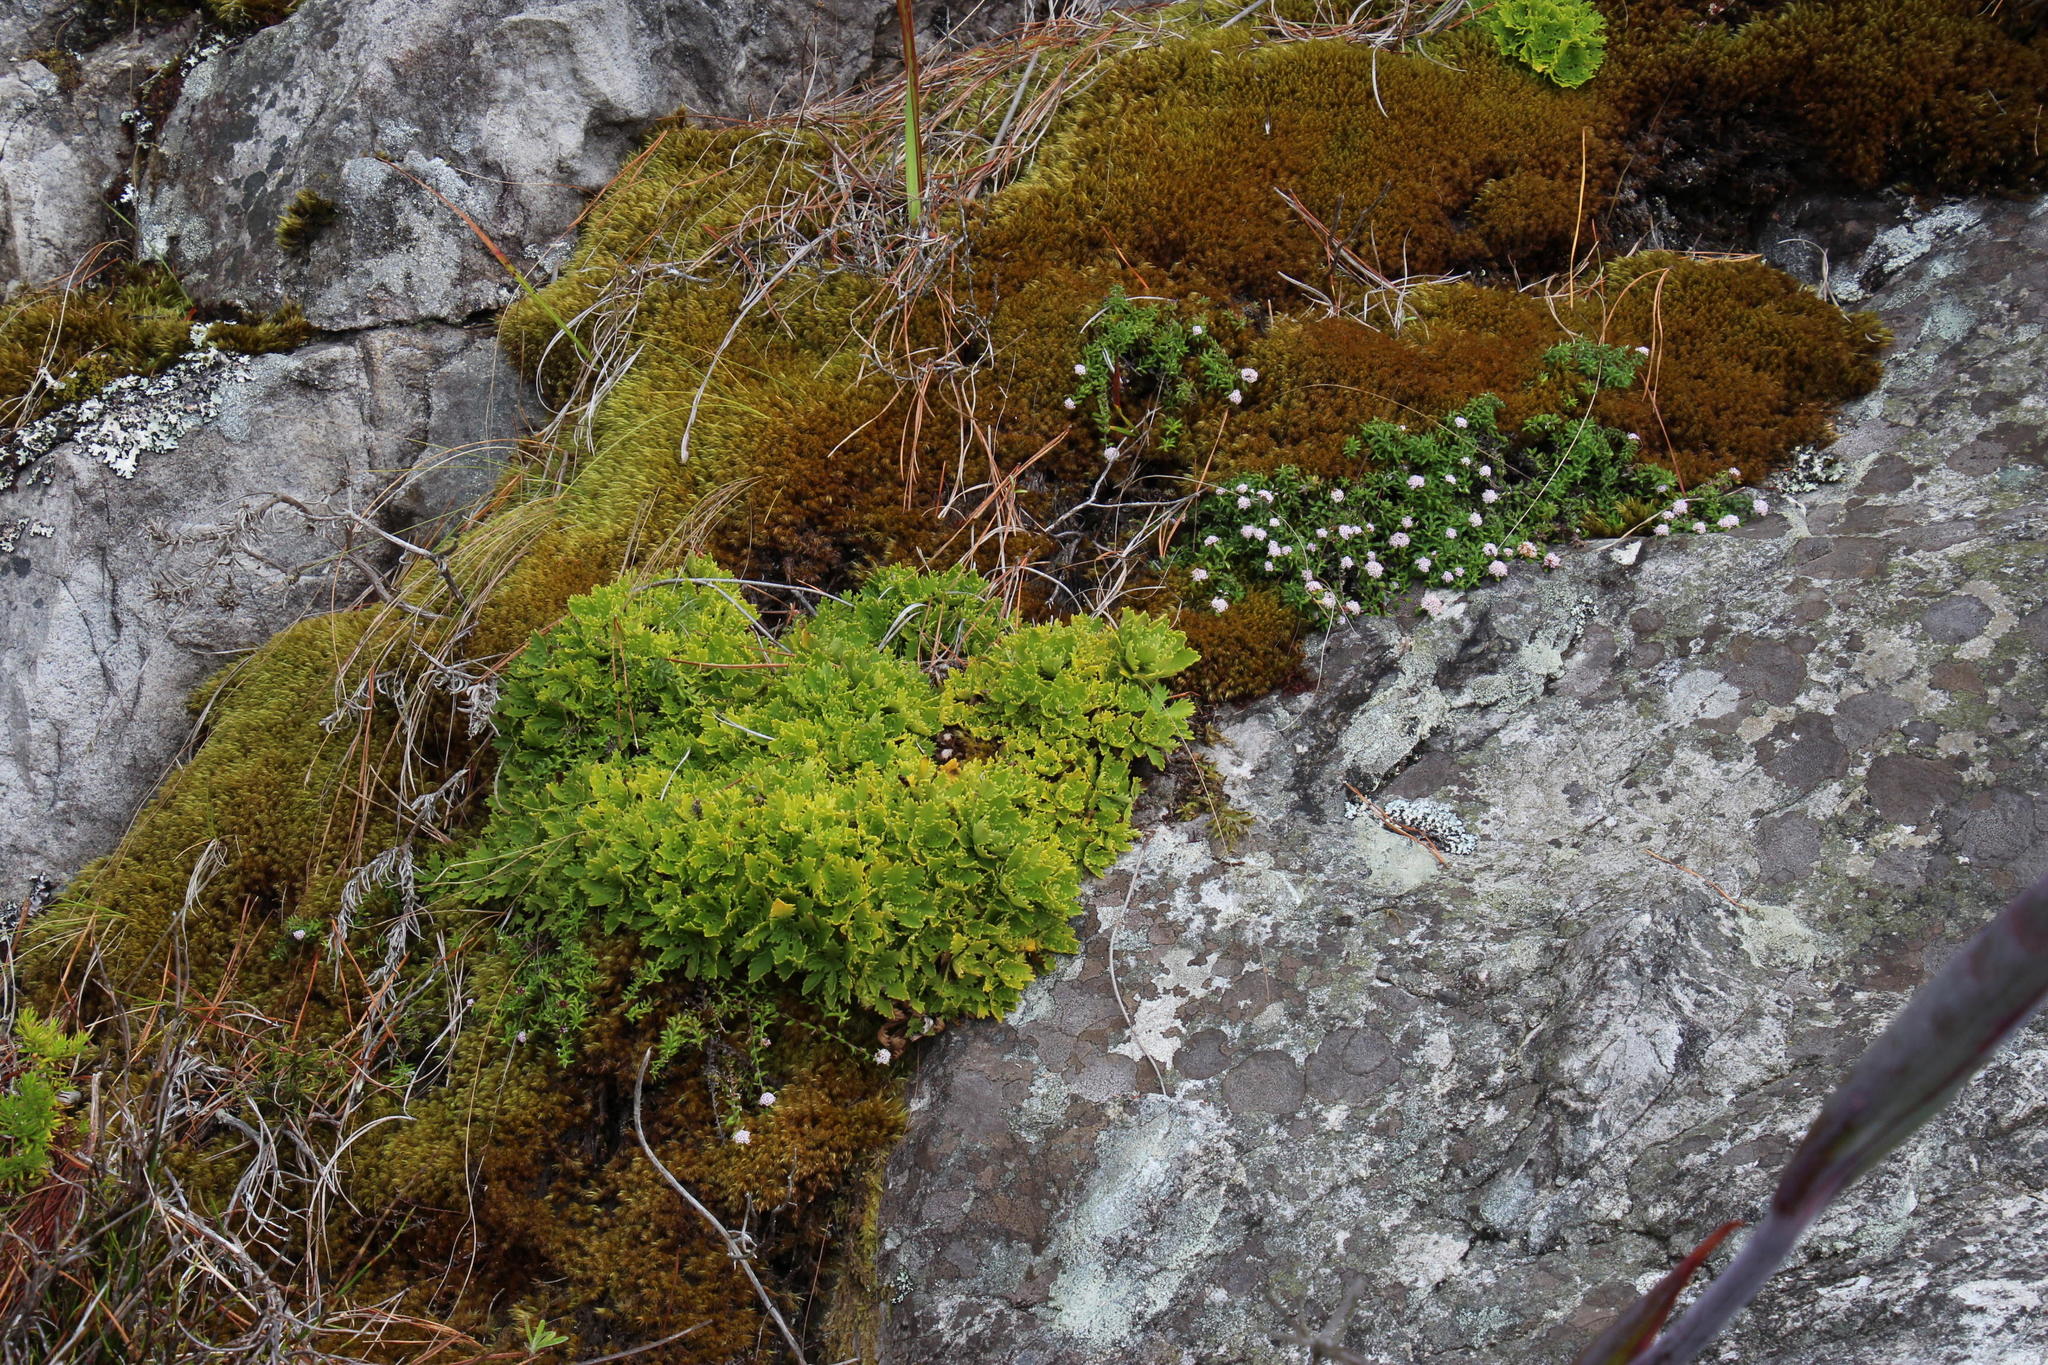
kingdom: Plantae
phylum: Tracheophyta
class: Magnoliopsida
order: Asterales
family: Asteraceae
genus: Osmitopsis
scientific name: Osmitopsis dentata
